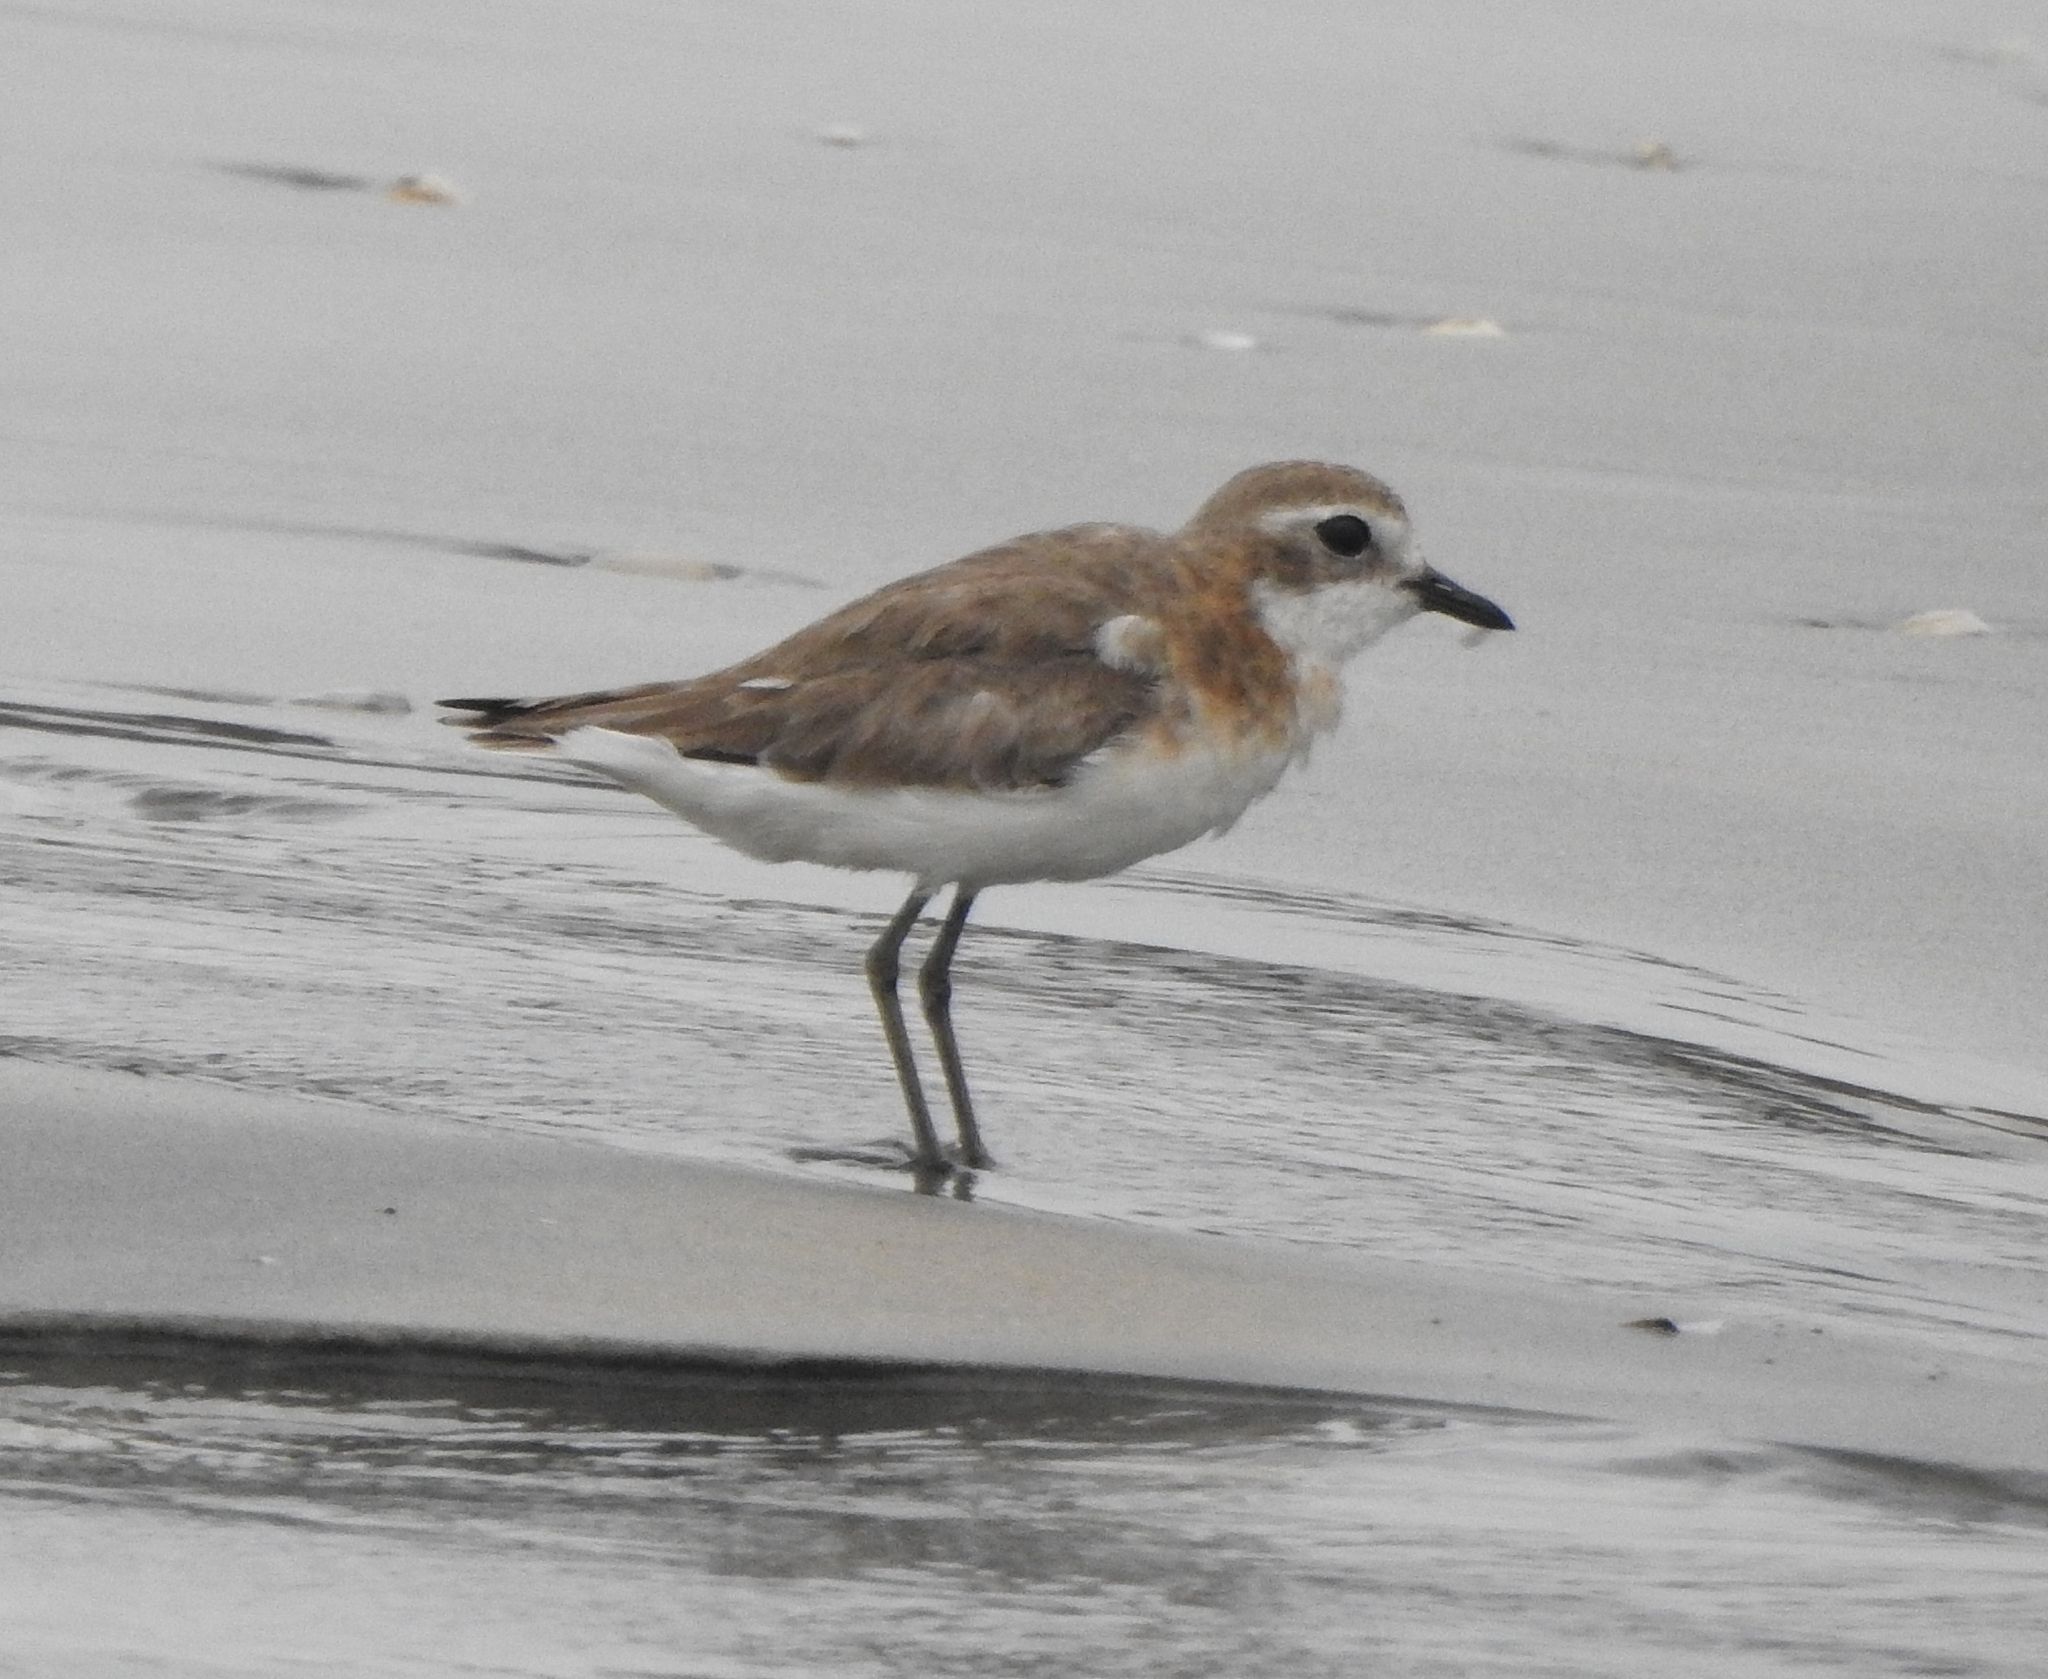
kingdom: Animalia
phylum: Chordata
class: Aves
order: Charadriiformes
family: Charadriidae
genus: Anarhynchus
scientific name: Anarhynchus
